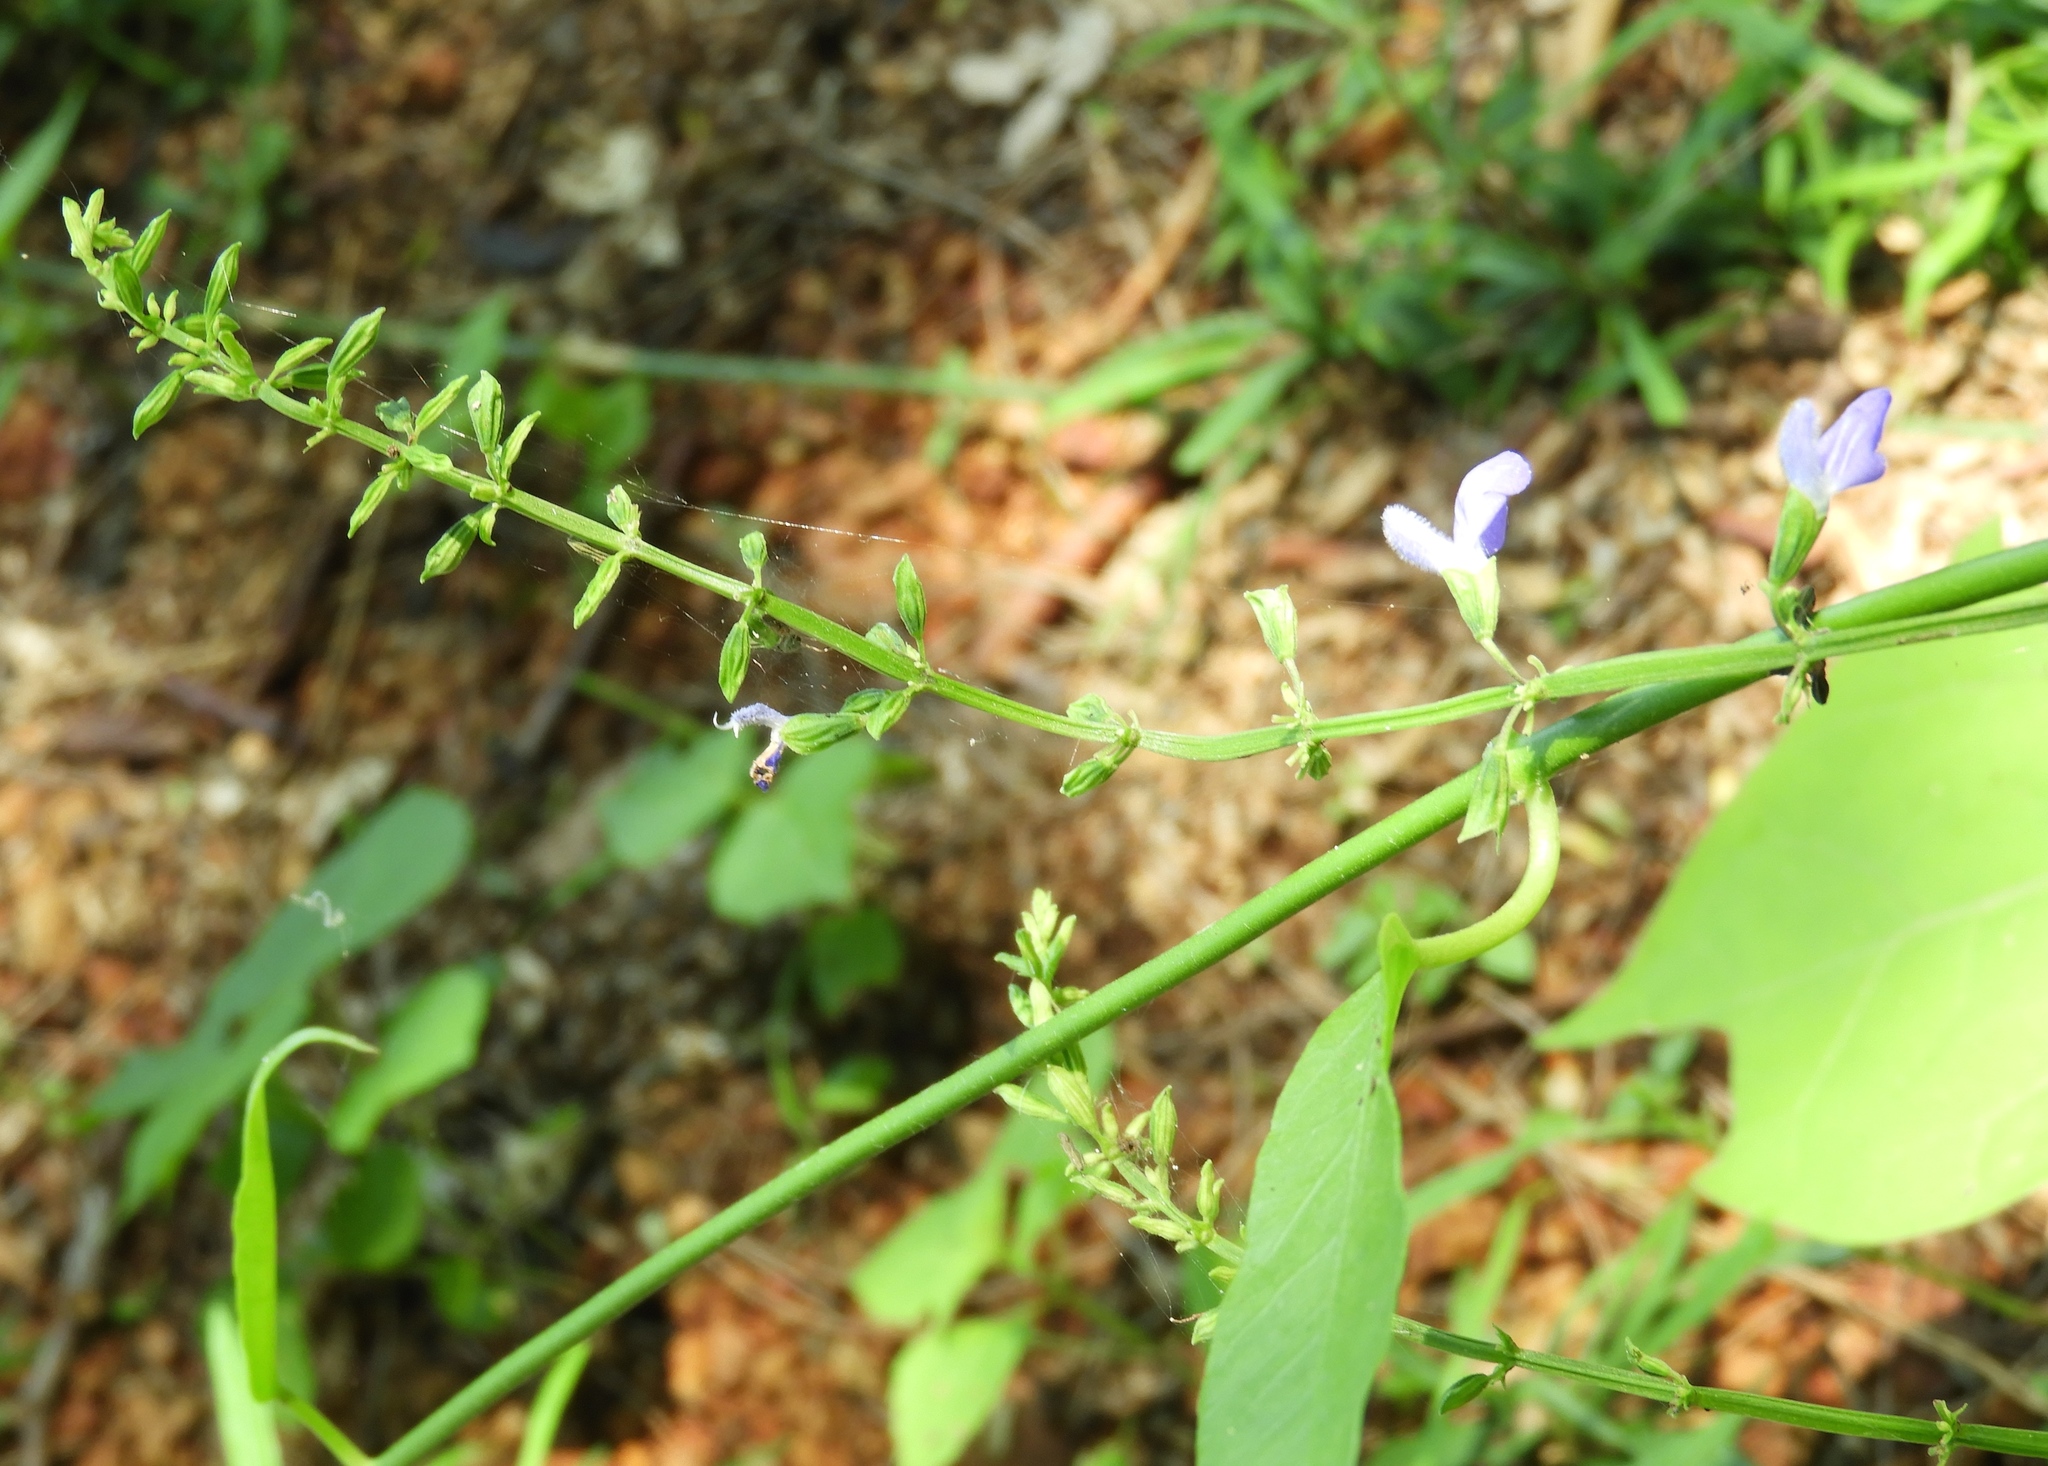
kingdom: Plantae
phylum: Tracheophyta
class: Magnoliopsida
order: Lamiales
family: Lamiaceae
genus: Salvia
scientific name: Salvia languidula
